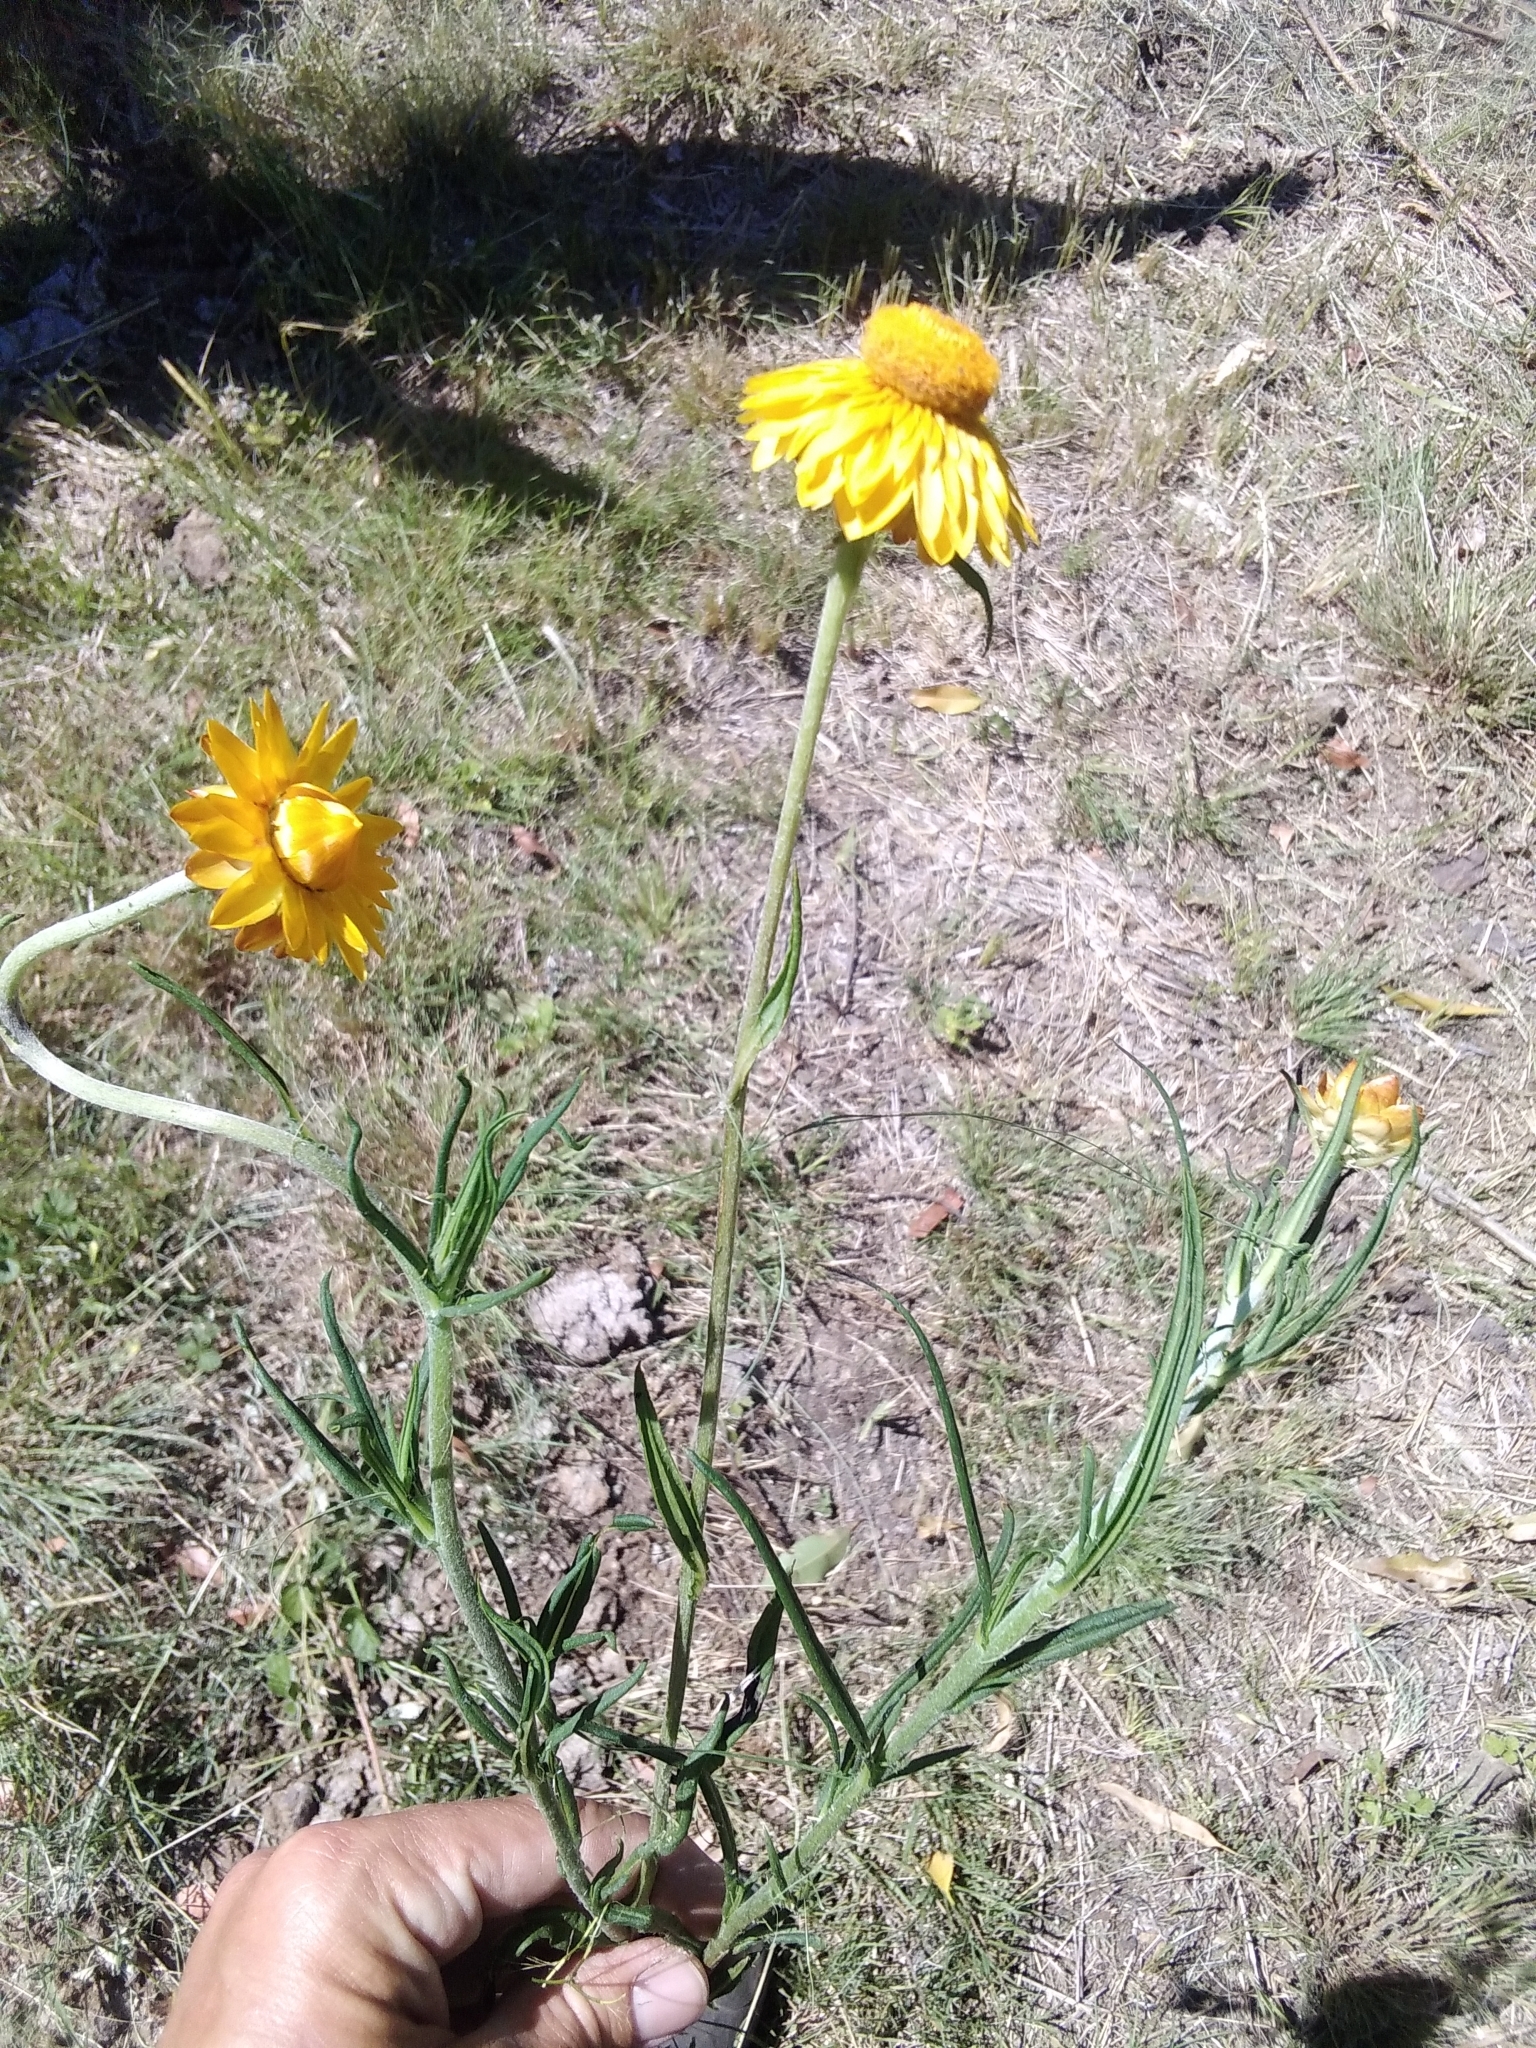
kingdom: Plantae
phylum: Tracheophyta
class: Magnoliopsida
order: Asterales
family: Asteraceae
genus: Xerochrysum
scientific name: Xerochrysum bracteatum
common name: Bracted strawflower
